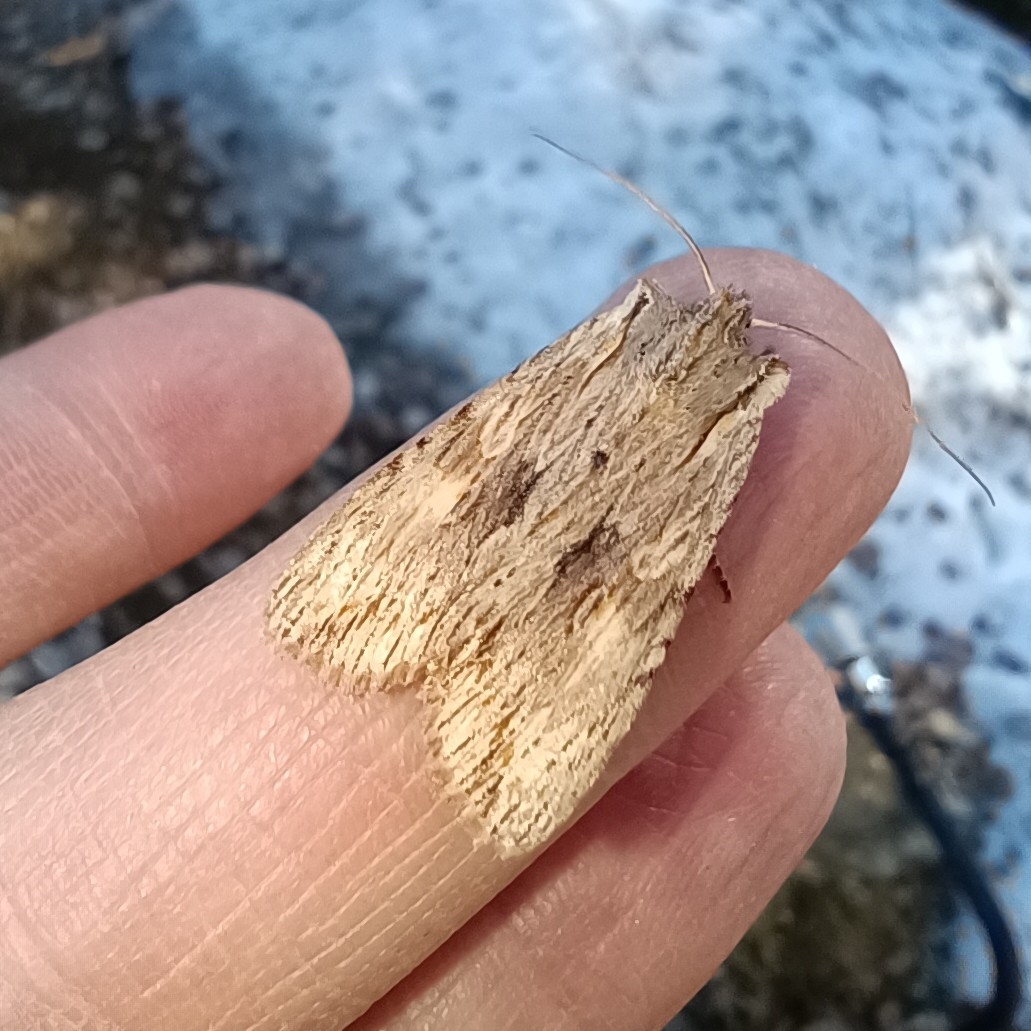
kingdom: Animalia
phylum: Arthropoda
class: Insecta
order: Lepidoptera
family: Noctuidae
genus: Lithophane
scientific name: Lithophane socia
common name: Pale pinion
